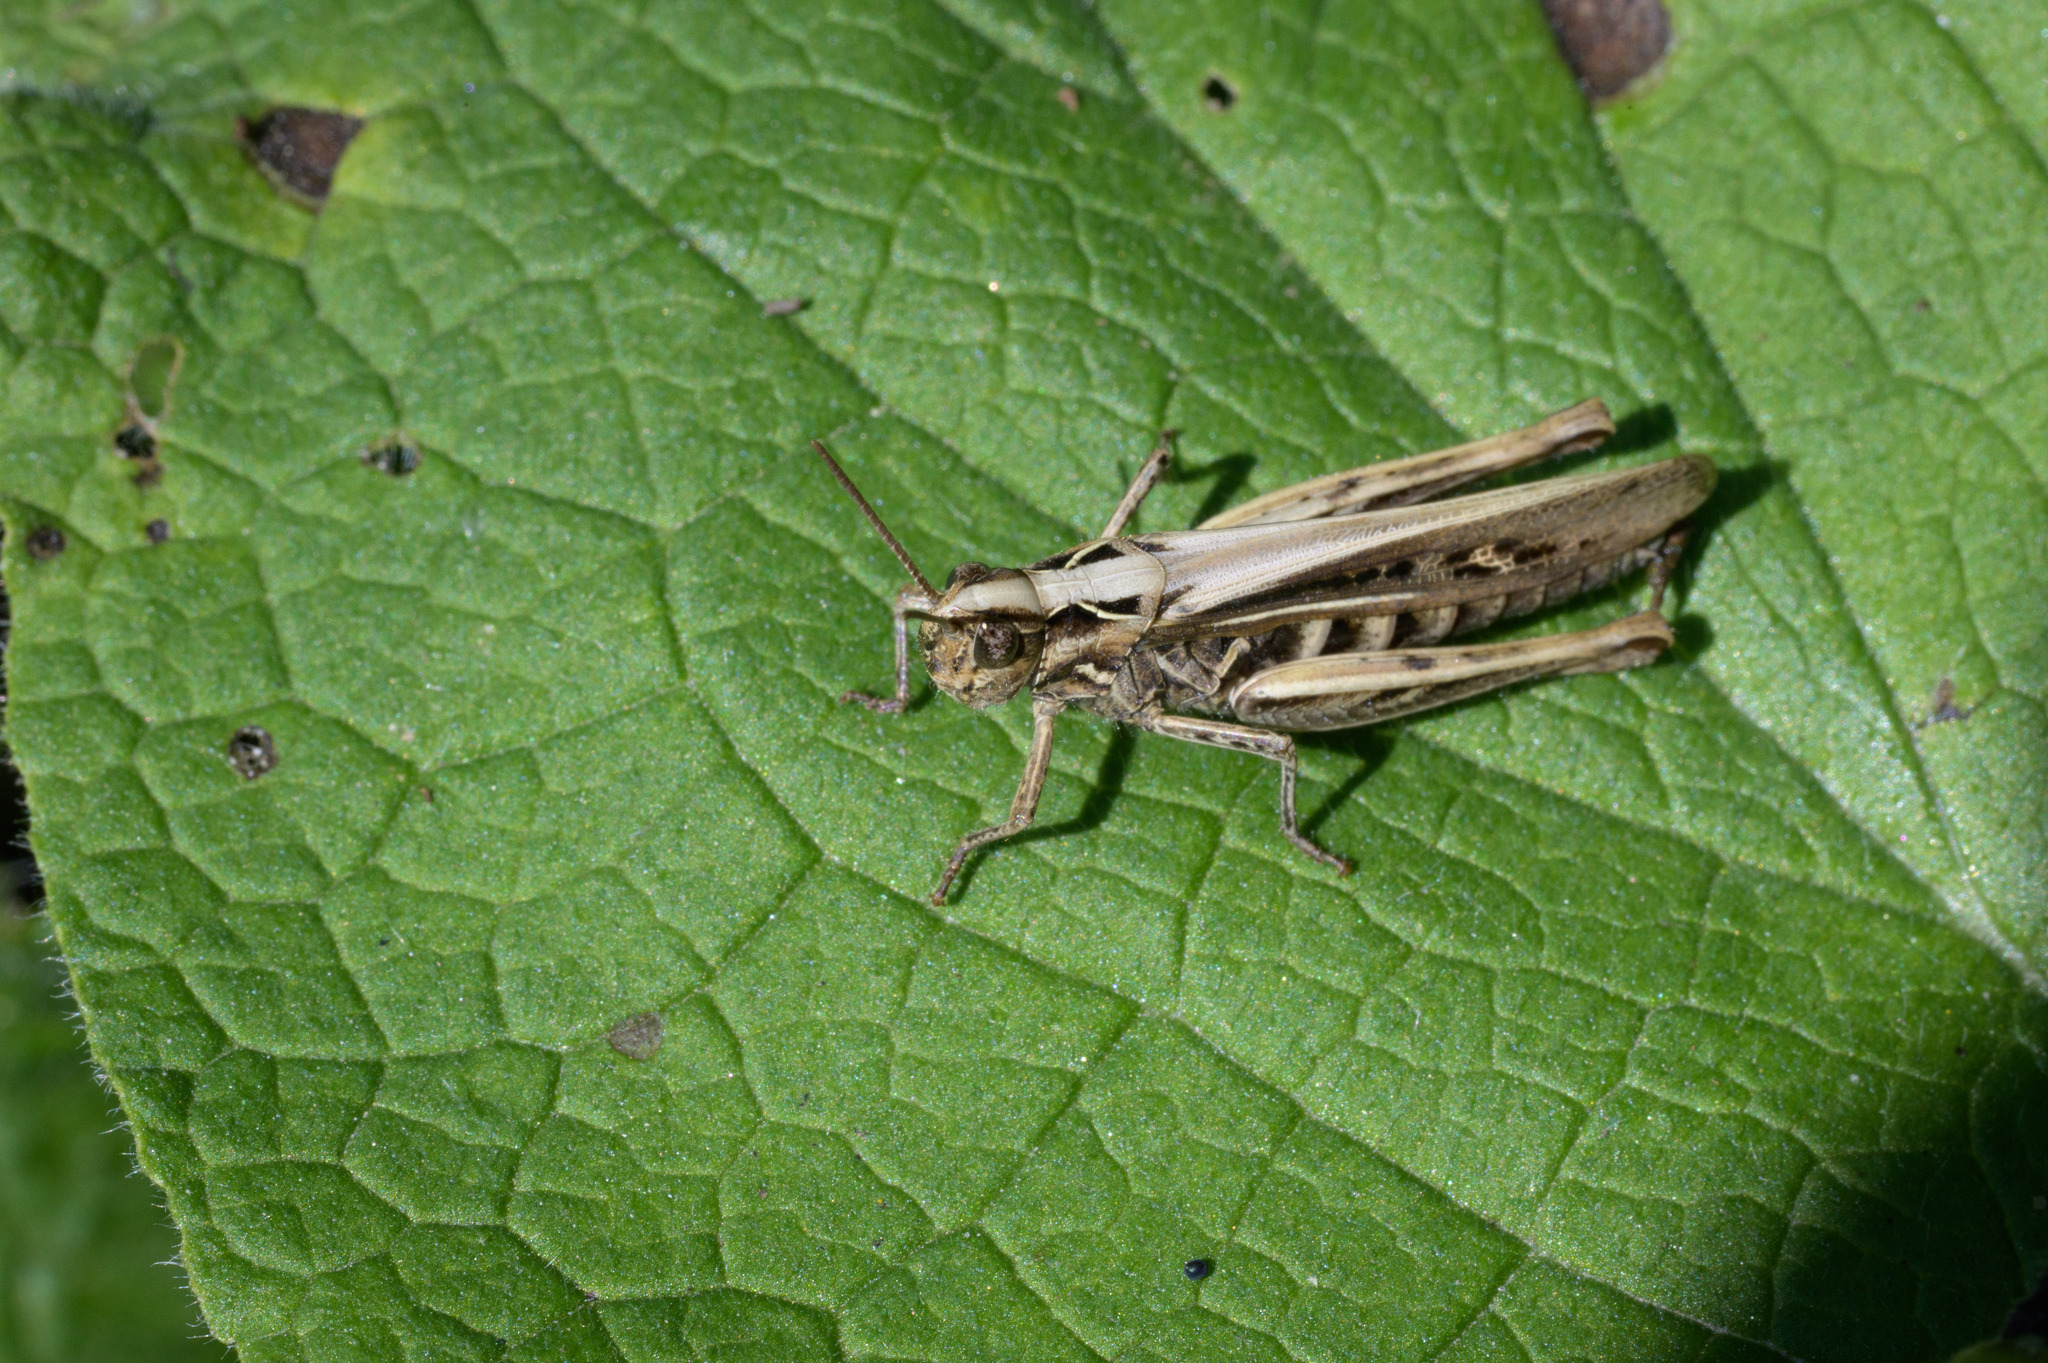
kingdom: Animalia
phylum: Arthropoda
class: Insecta
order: Orthoptera
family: Acrididae
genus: Chorthippus
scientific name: Chorthippus brunneus
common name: Field grasshopper
